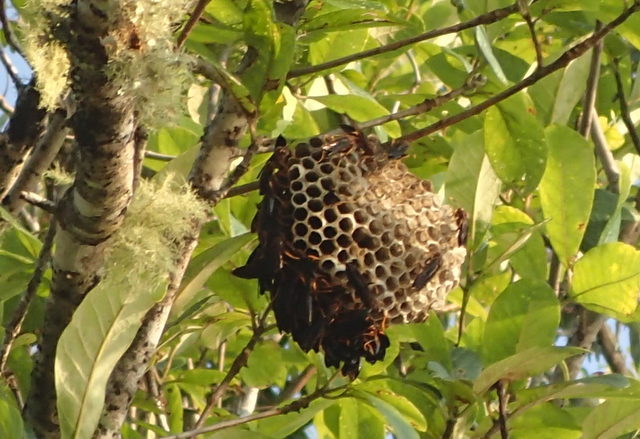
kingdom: Animalia
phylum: Arthropoda
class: Insecta
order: Hymenoptera
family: Eumenidae
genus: Polistes
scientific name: Polistes annularis
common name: Ringed paper wasp
